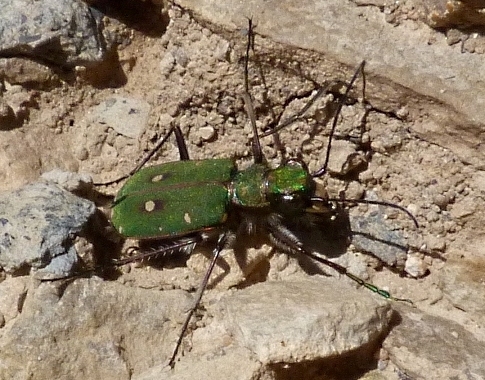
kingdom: Animalia
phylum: Arthropoda
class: Insecta
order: Coleoptera
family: Carabidae
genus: Cicindela
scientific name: Cicindela campestris
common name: Common tiger beetle
